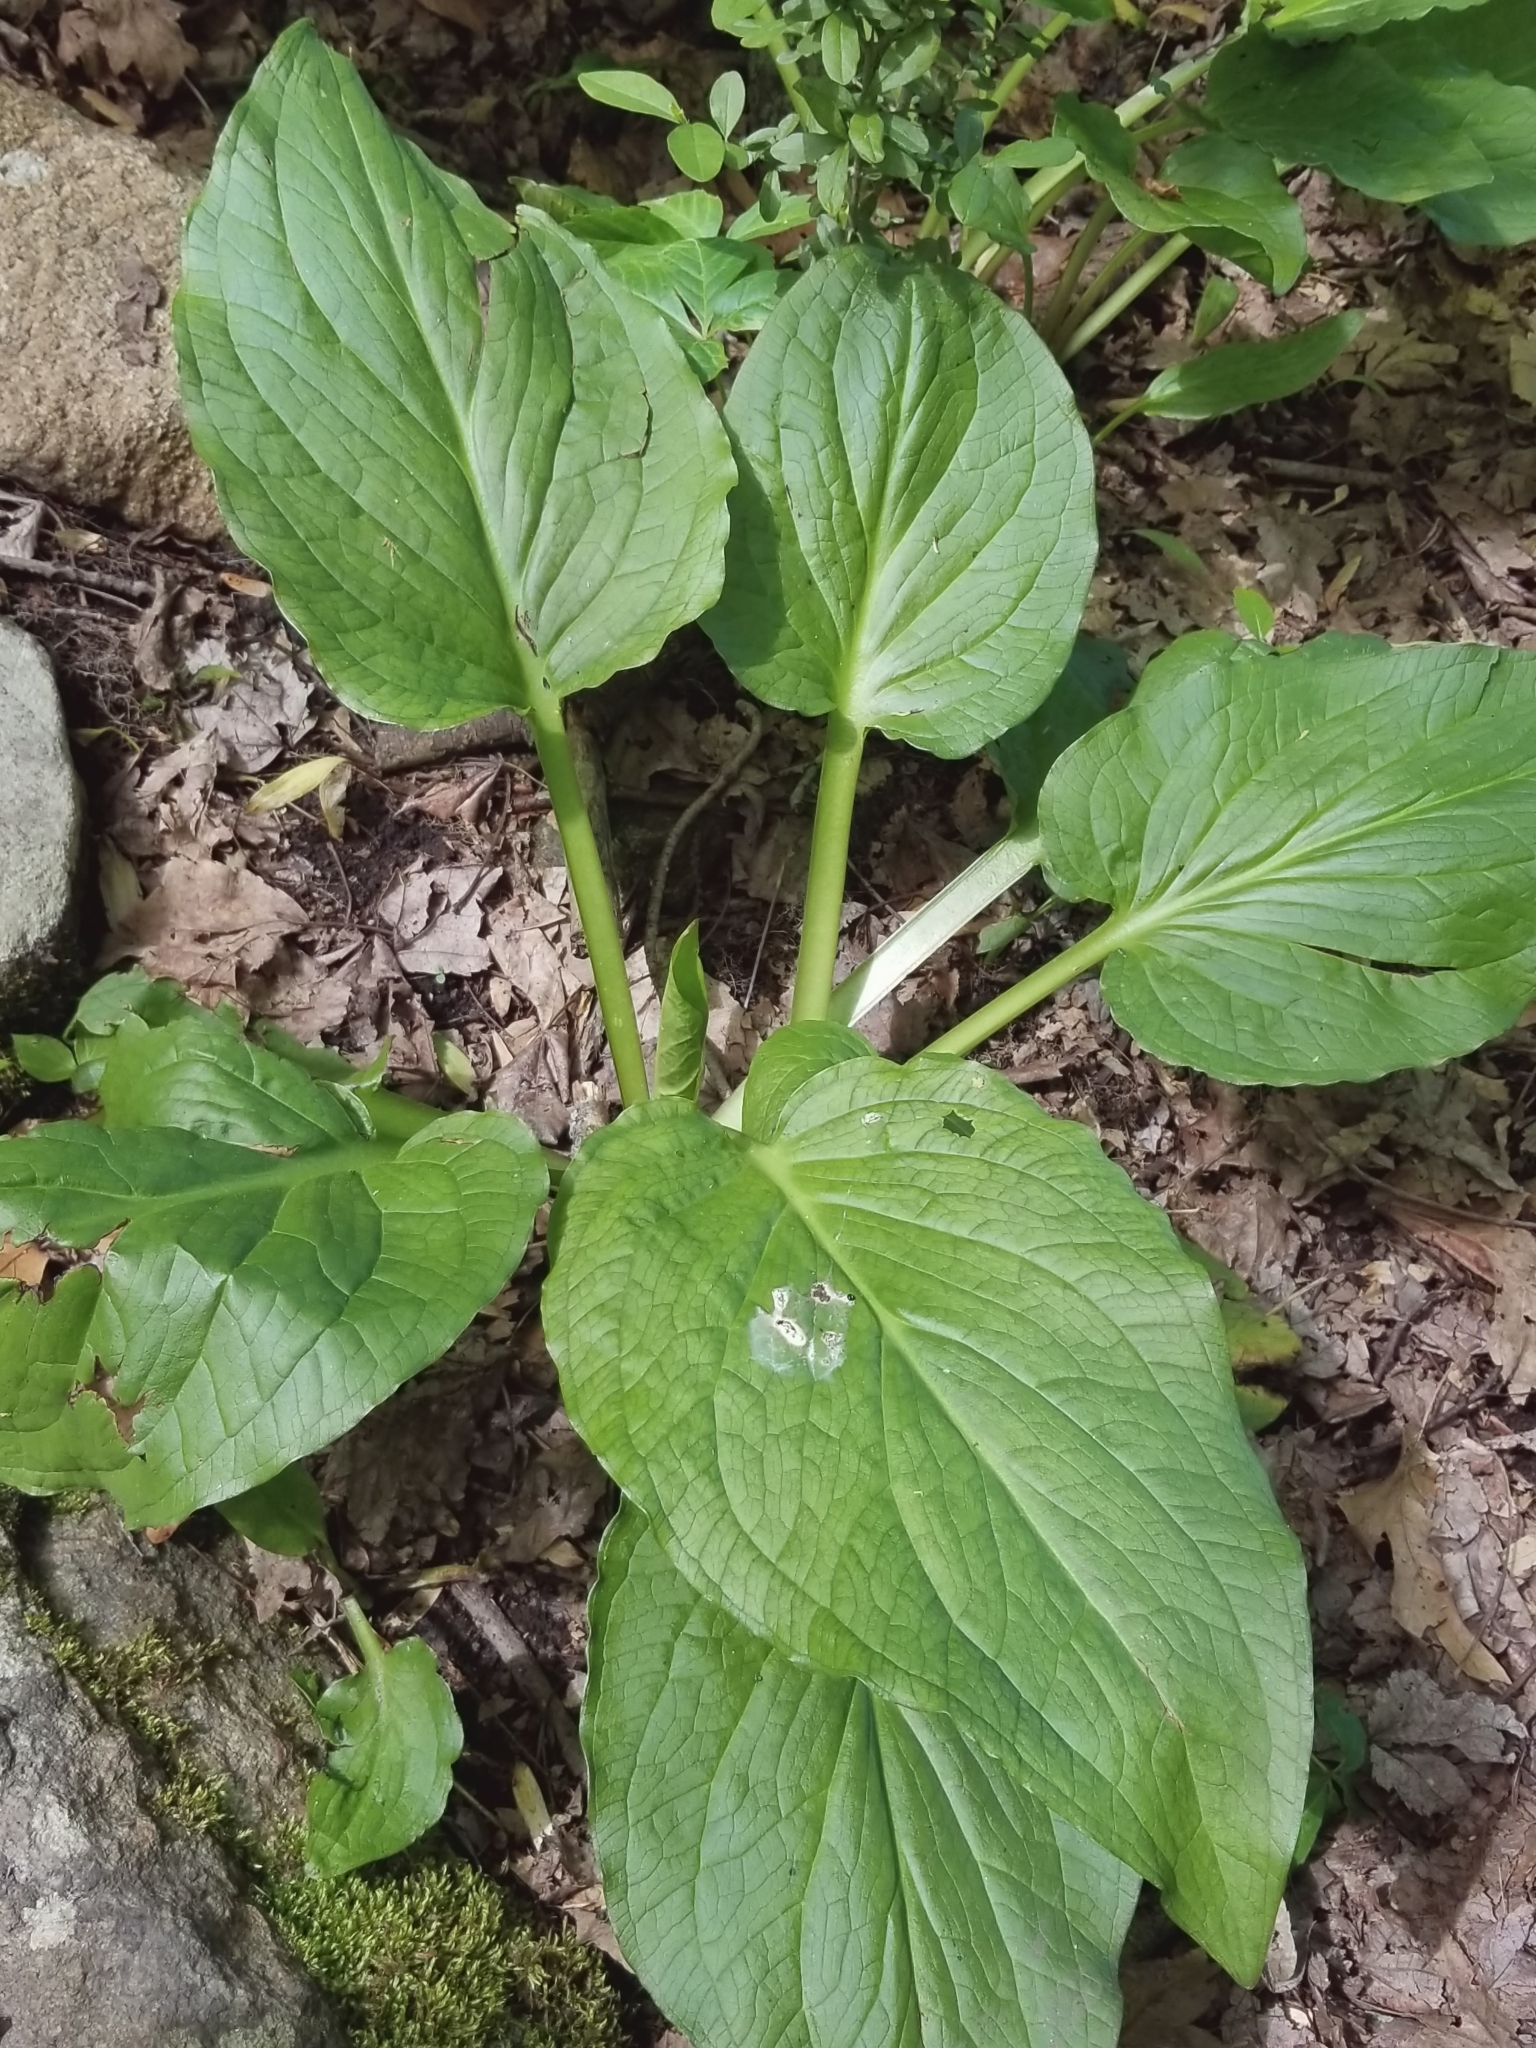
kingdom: Plantae
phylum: Tracheophyta
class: Liliopsida
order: Alismatales
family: Araceae
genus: Symplocarpus
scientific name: Symplocarpus foetidus
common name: Eastern skunk cabbage
